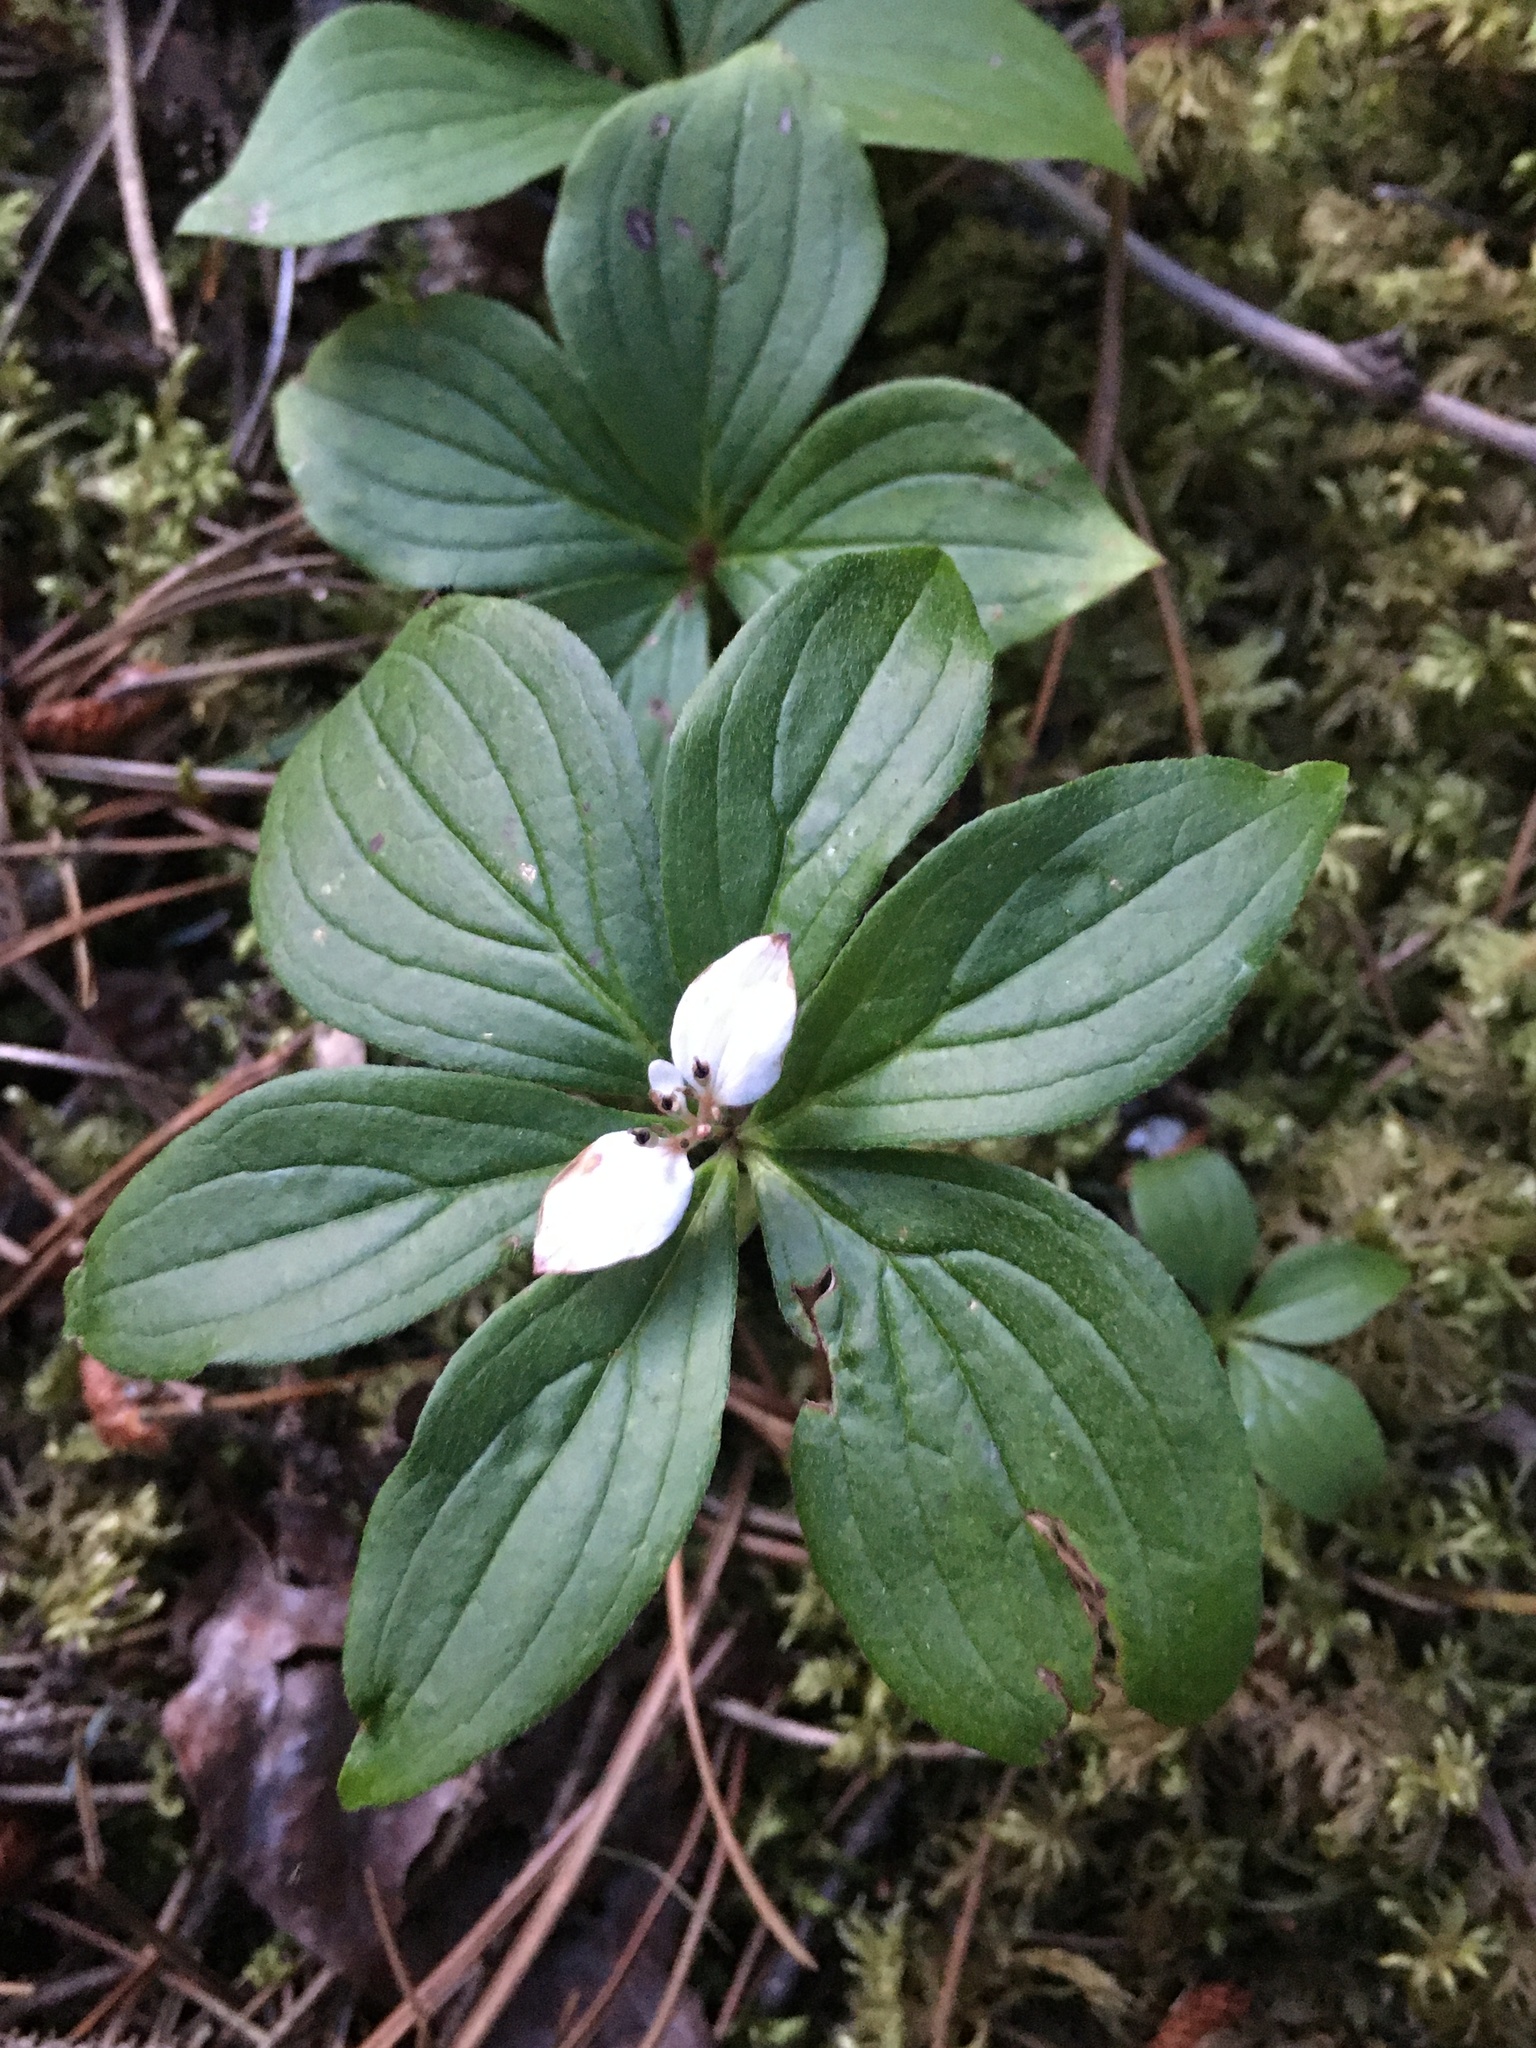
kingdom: Plantae
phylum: Tracheophyta
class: Magnoliopsida
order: Cornales
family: Cornaceae
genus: Cornus
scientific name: Cornus canadensis
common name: Creeping dogwood
